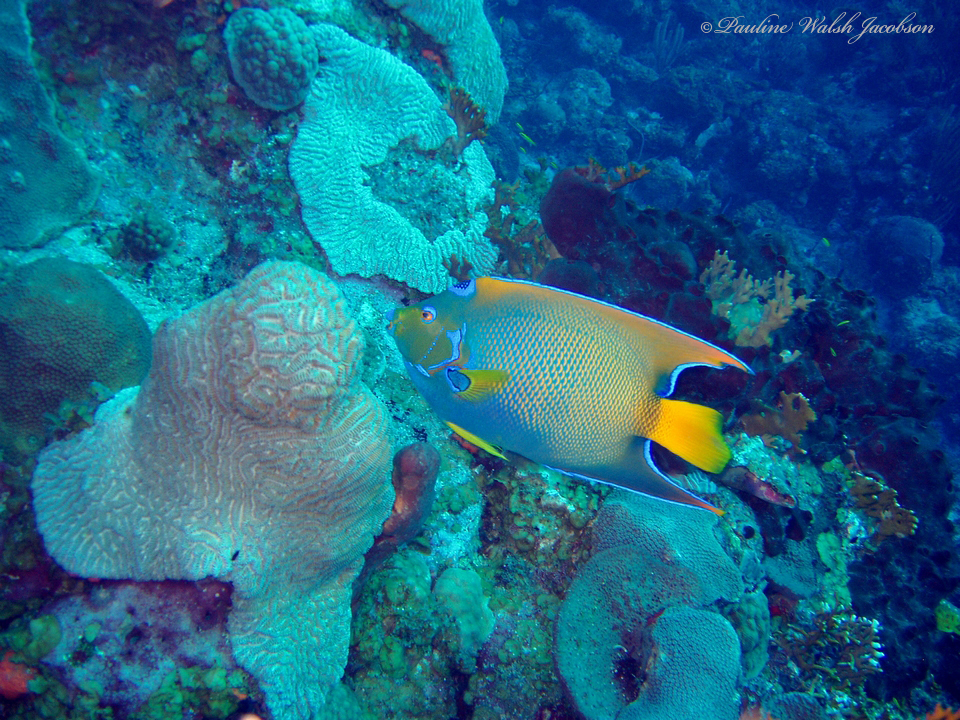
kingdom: Animalia
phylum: Chordata
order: Perciformes
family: Pomacanthidae
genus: Holacanthus
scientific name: Holacanthus ciliaris
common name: Queen angelfish
